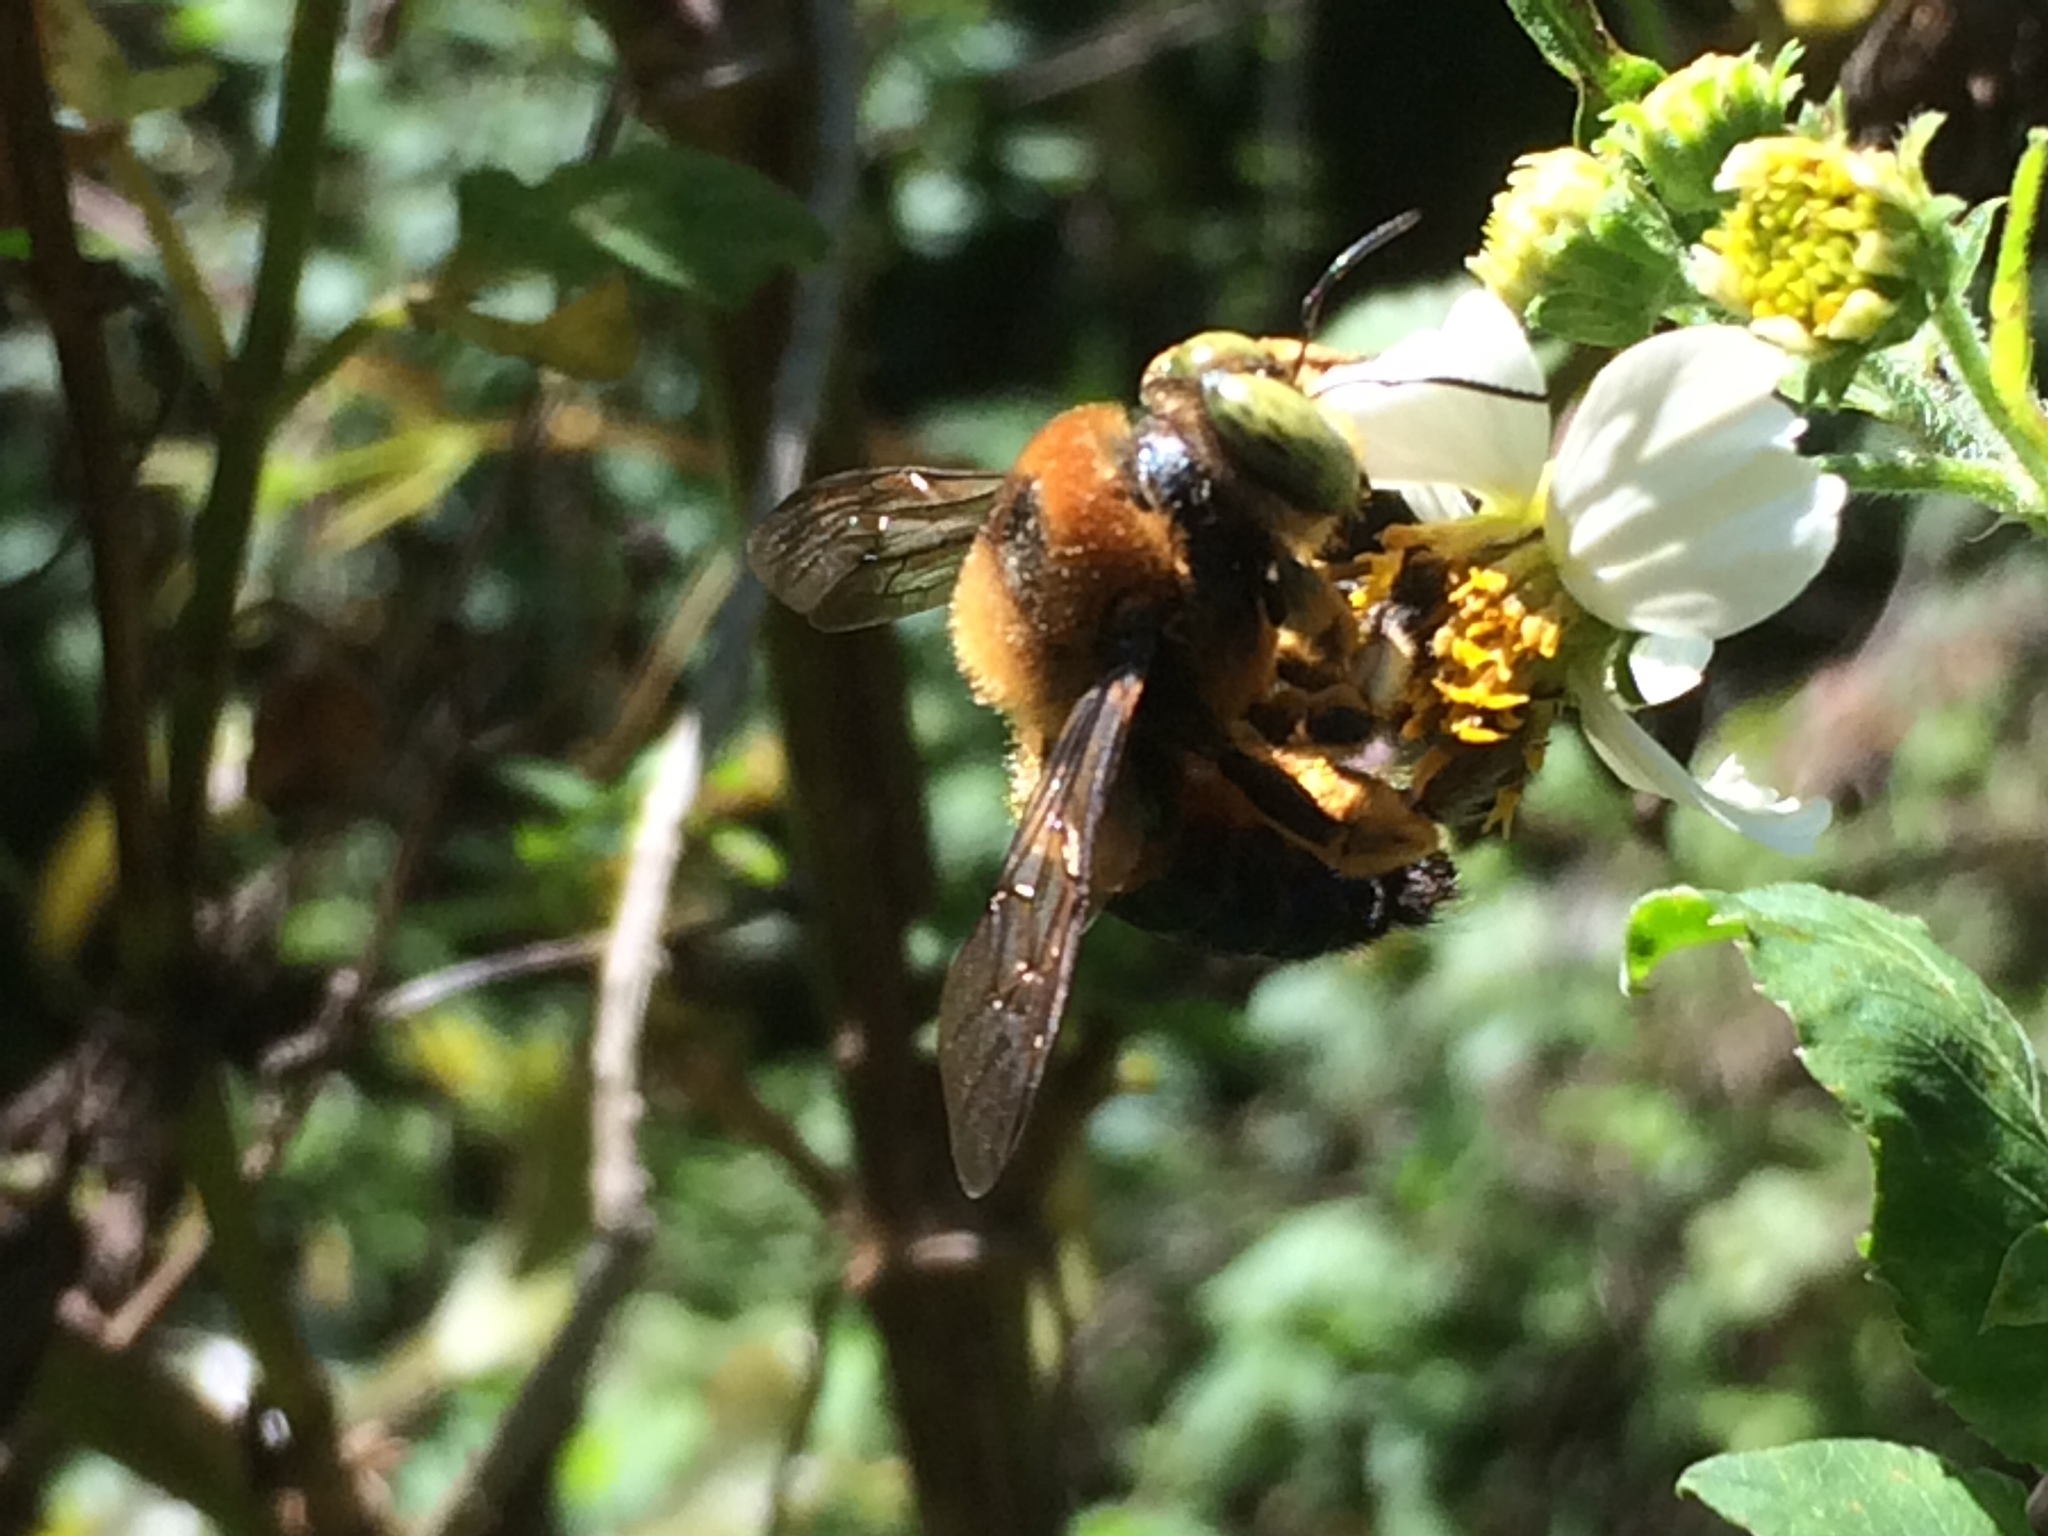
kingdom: Animalia
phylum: Arthropoda
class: Insecta
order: Hymenoptera
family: Apidae
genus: Xylocopa
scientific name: Xylocopa micans
